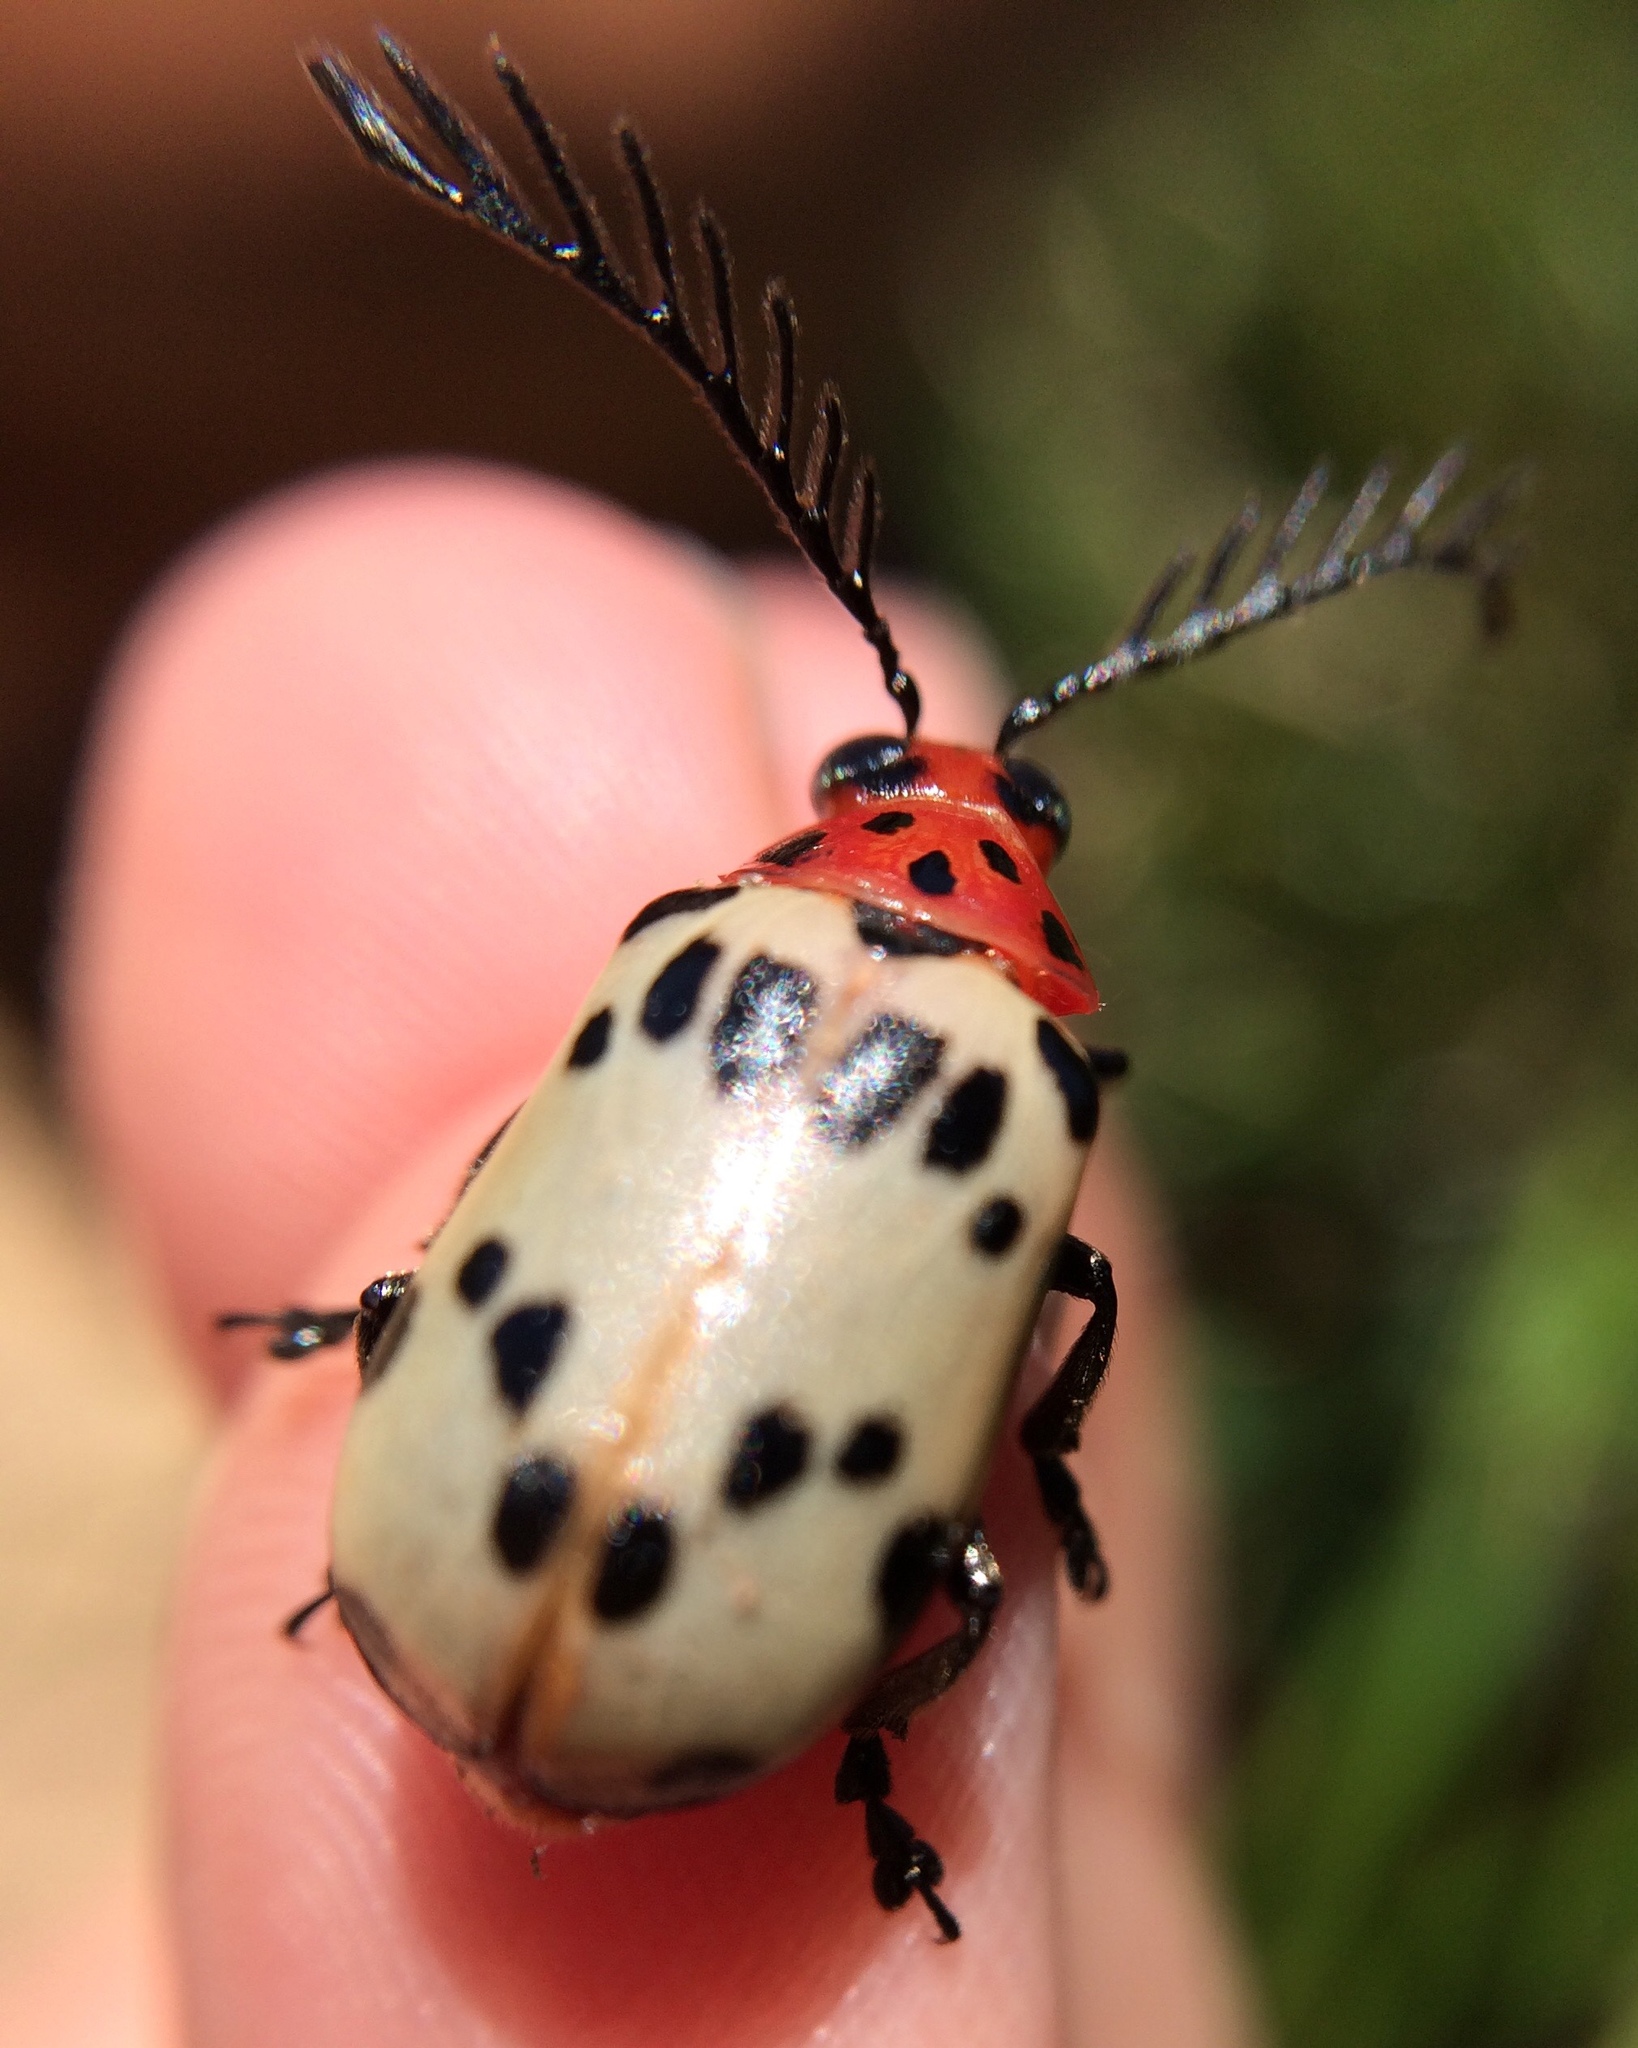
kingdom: Animalia
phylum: Arthropoda
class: Insecta
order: Coleoptera
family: Chrysomelidae
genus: Polyclada
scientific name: Polyclada
